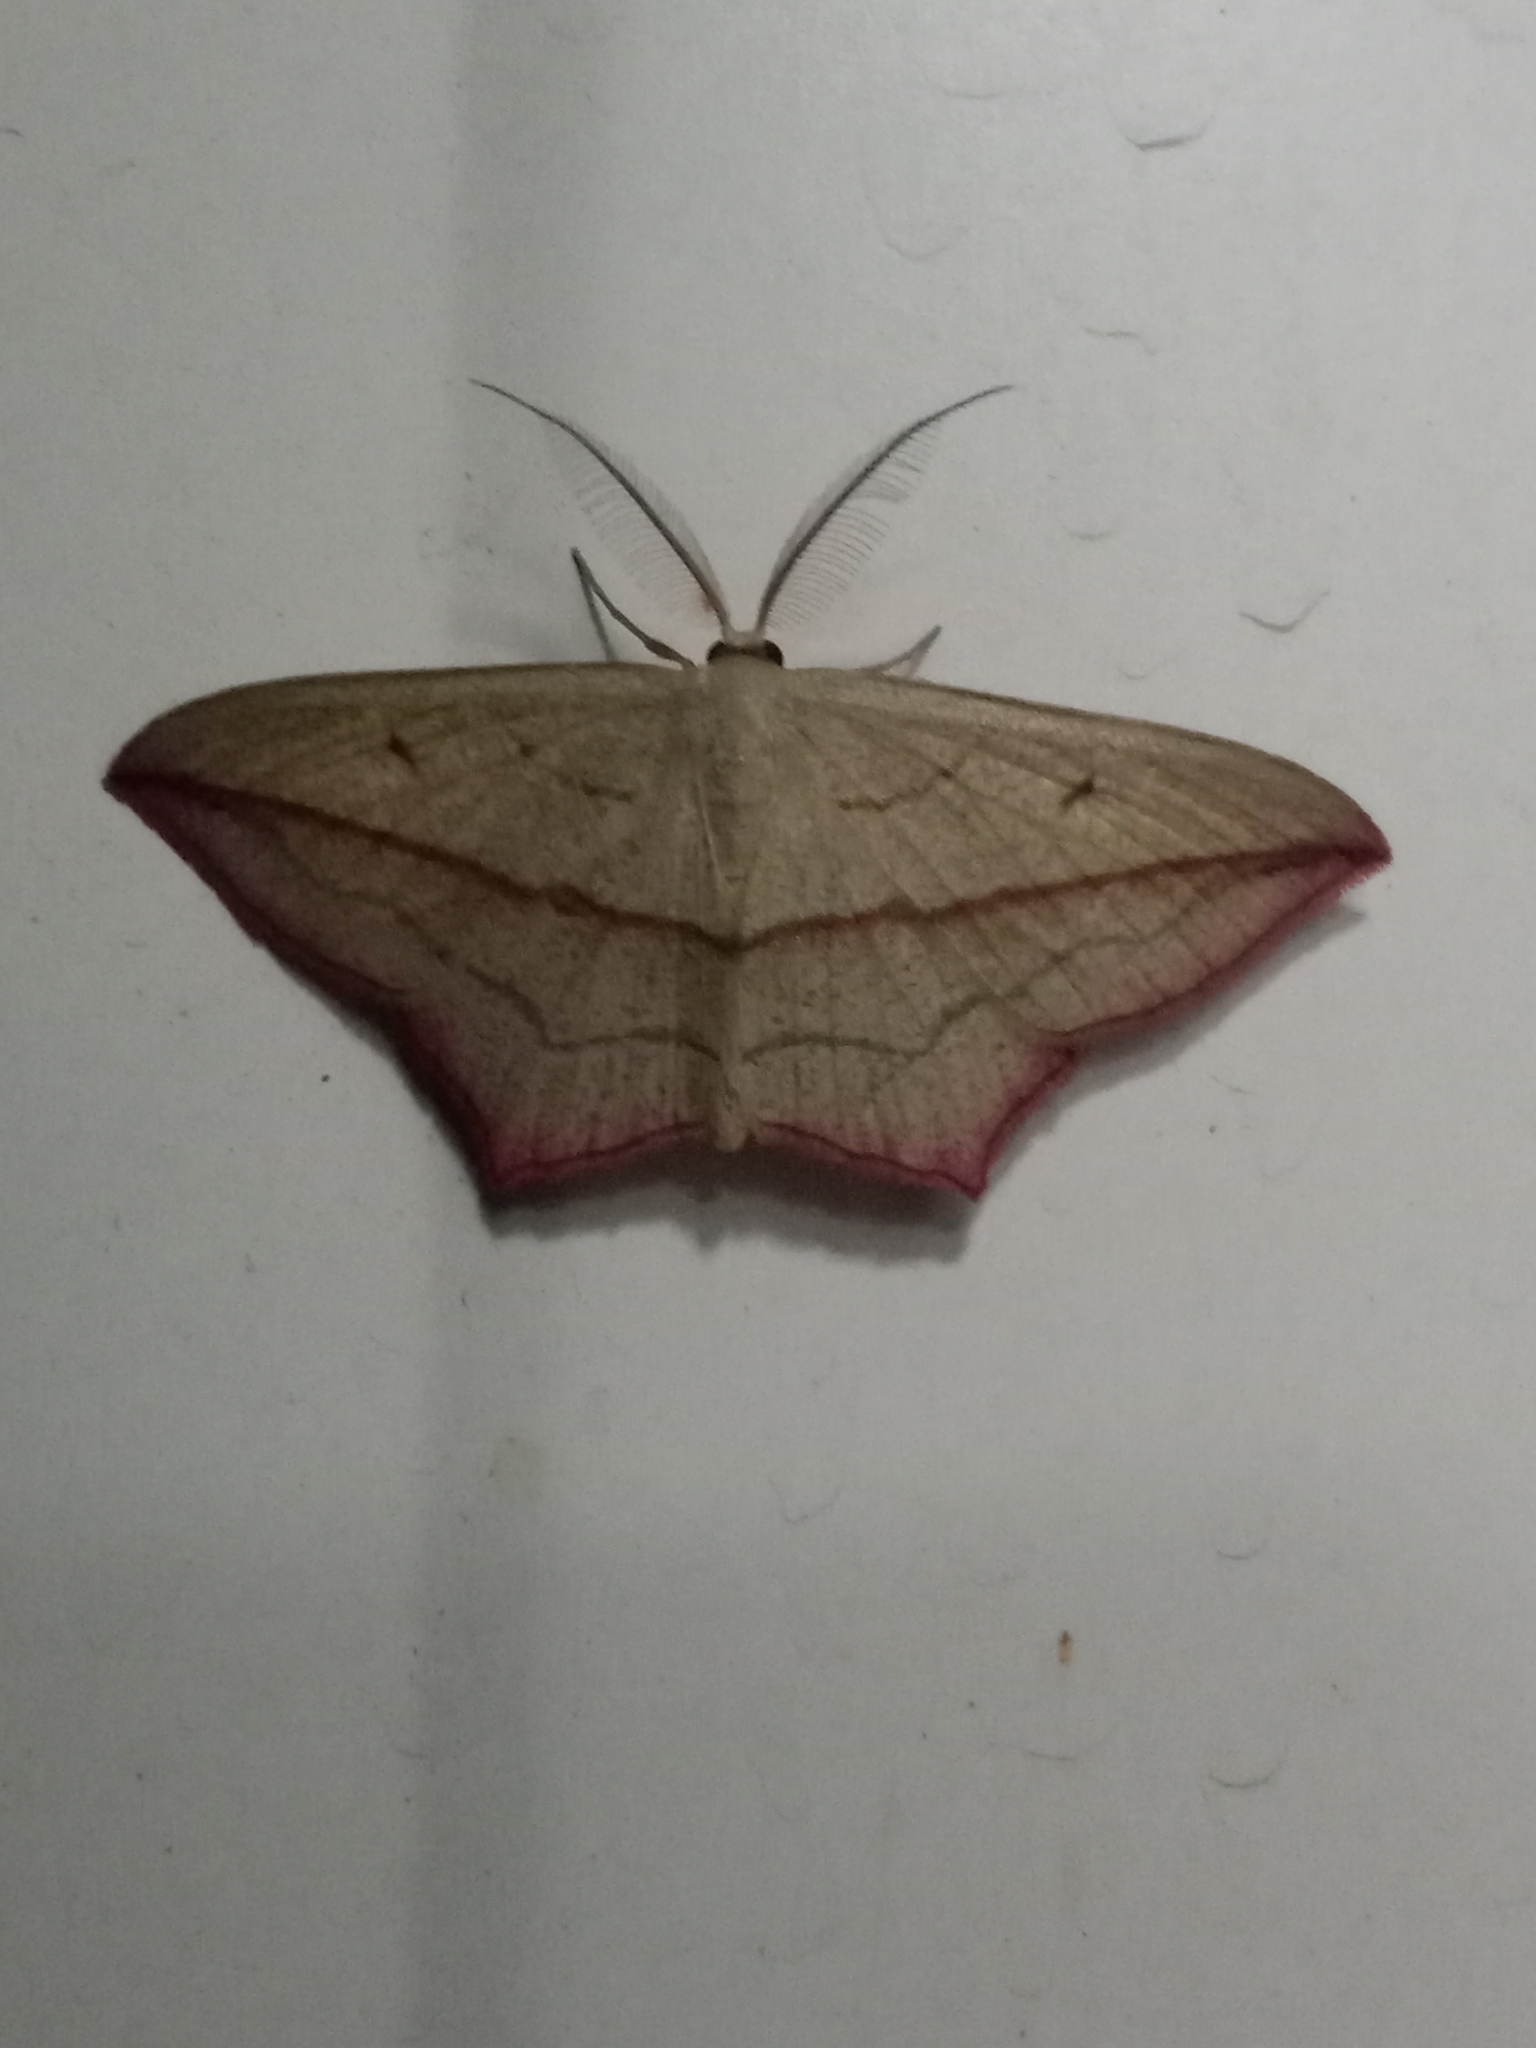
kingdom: Animalia
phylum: Arthropoda
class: Insecta
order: Lepidoptera
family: Geometridae
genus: Timandra
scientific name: Timandra comae
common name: Blood-vein
